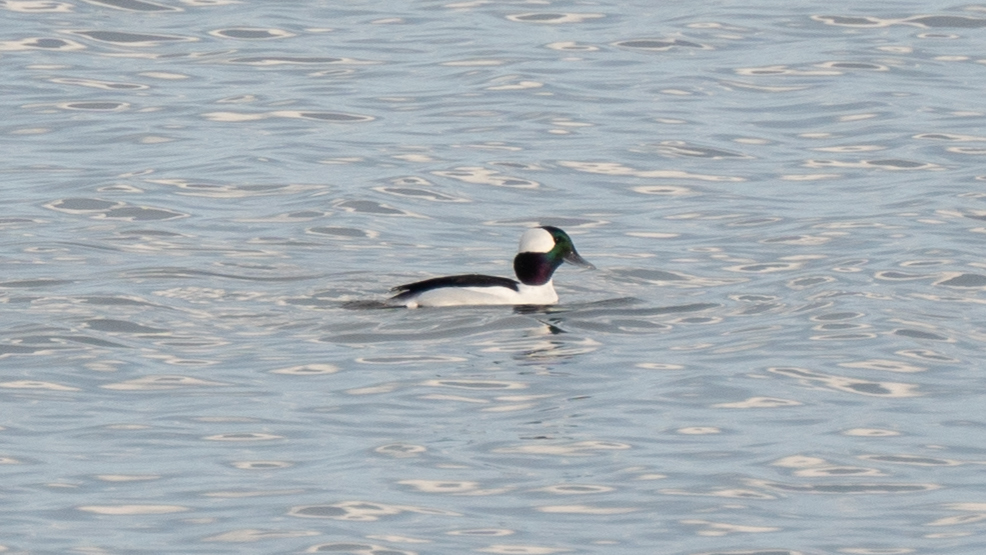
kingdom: Animalia
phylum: Chordata
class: Aves
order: Anseriformes
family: Anatidae
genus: Bucephala
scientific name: Bucephala albeola
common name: Bufflehead
